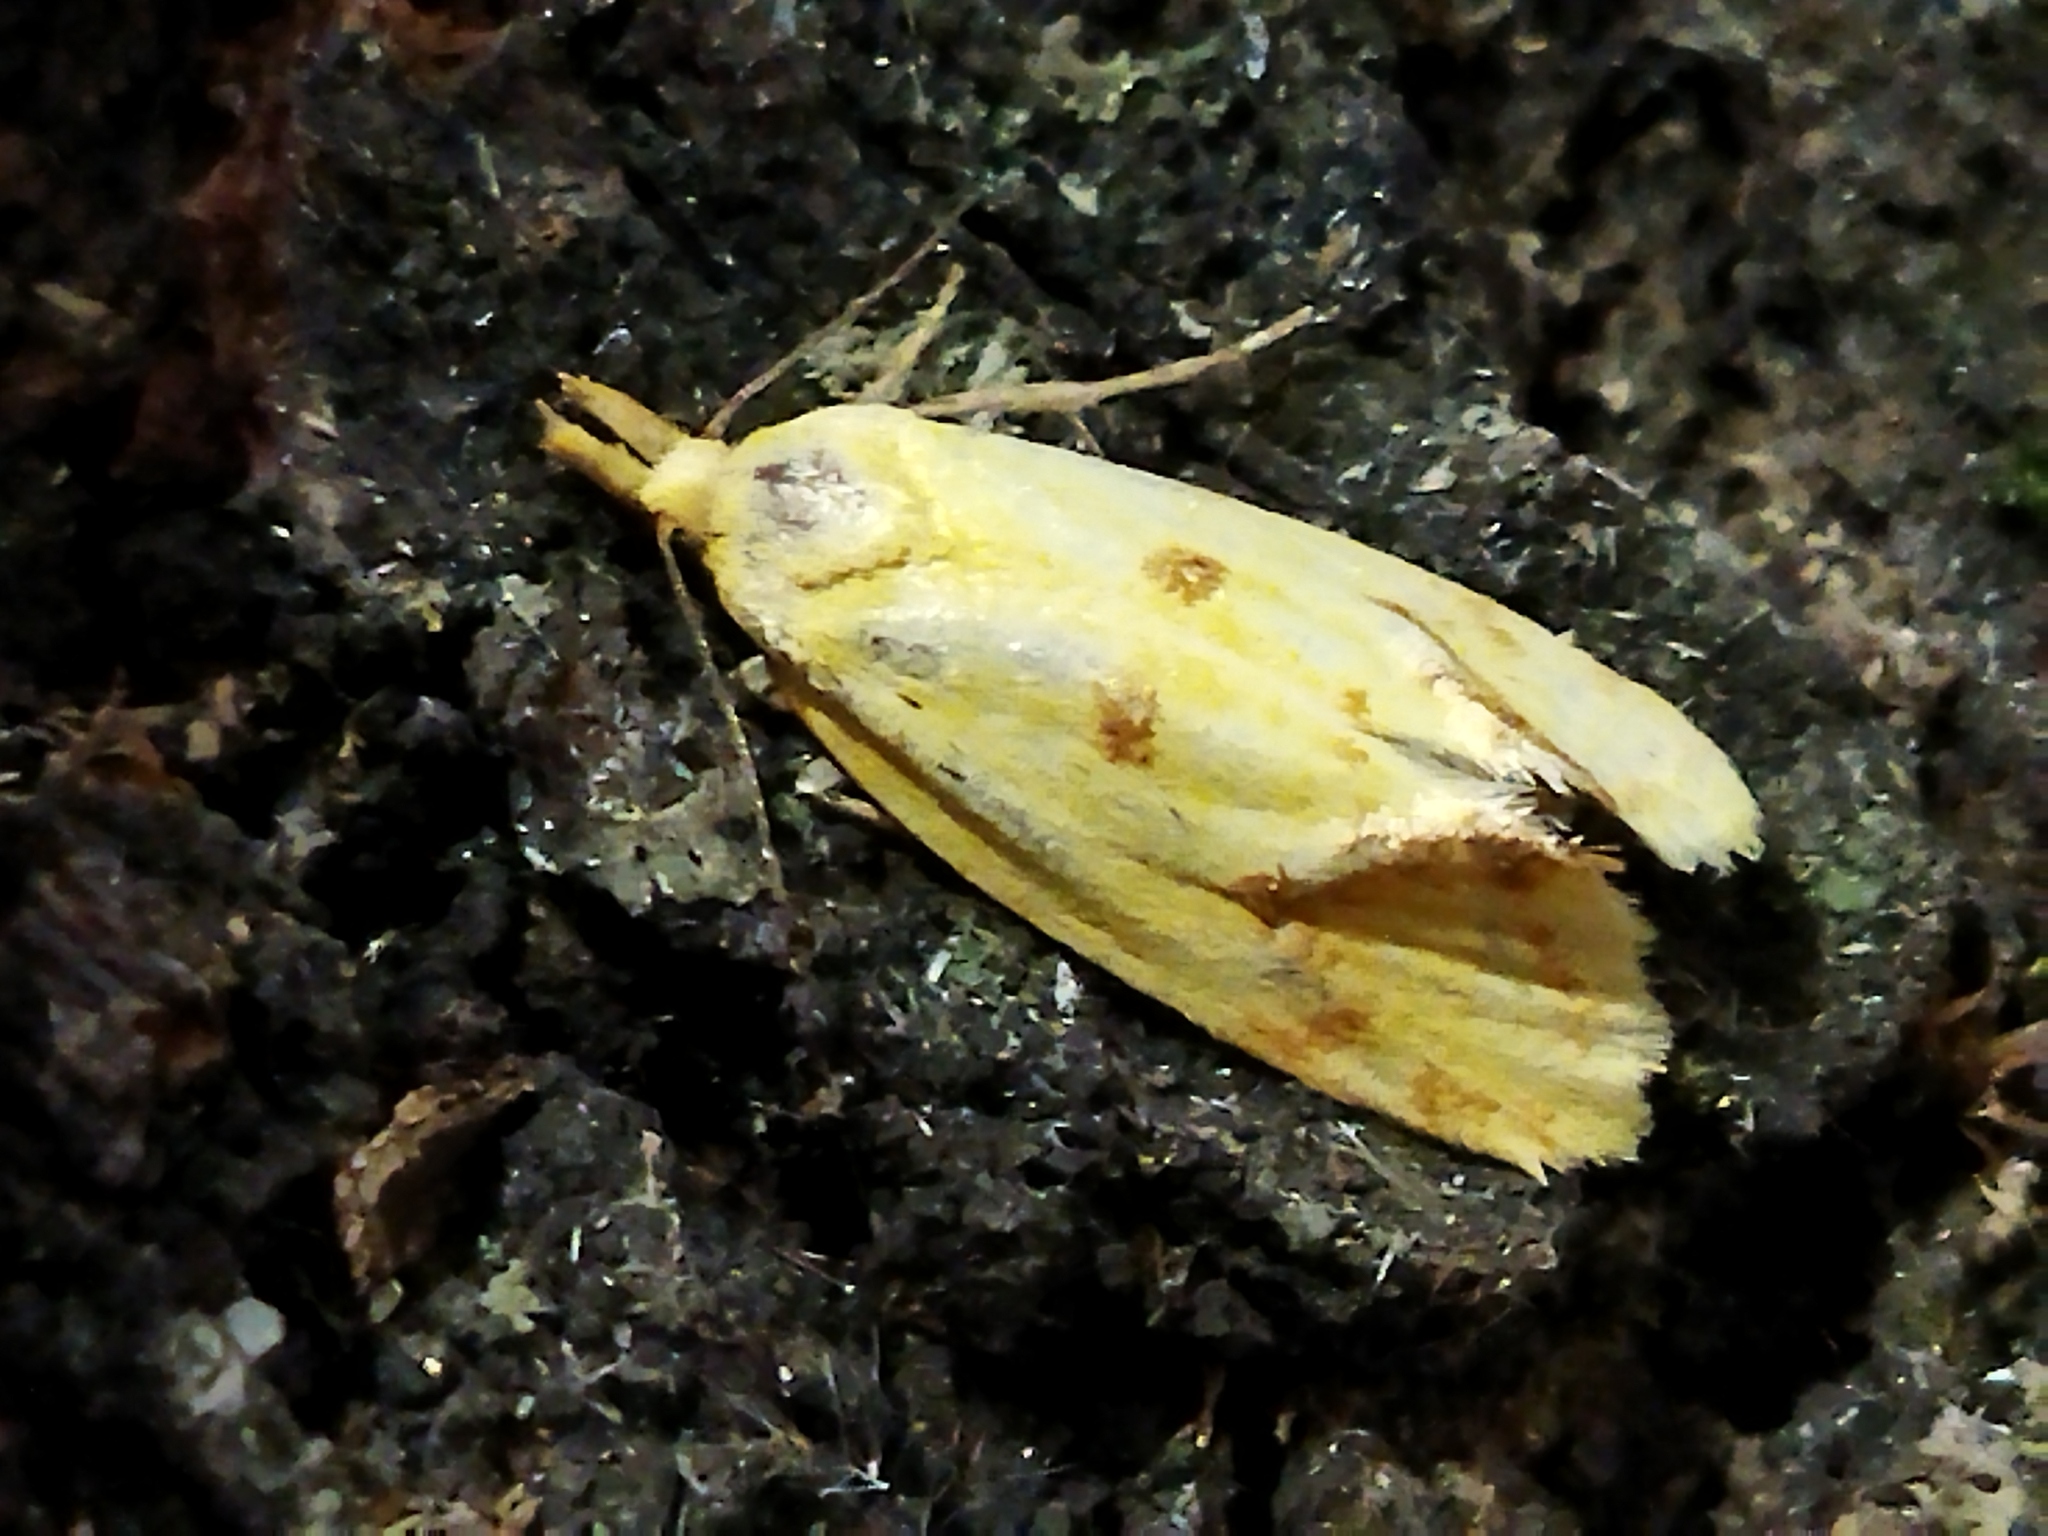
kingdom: Animalia
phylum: Arthropoda
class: Insecta
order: Lepidoptera
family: Tortricidae
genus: Agapeta
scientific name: Agapeta hamana
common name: Common yellow conch
